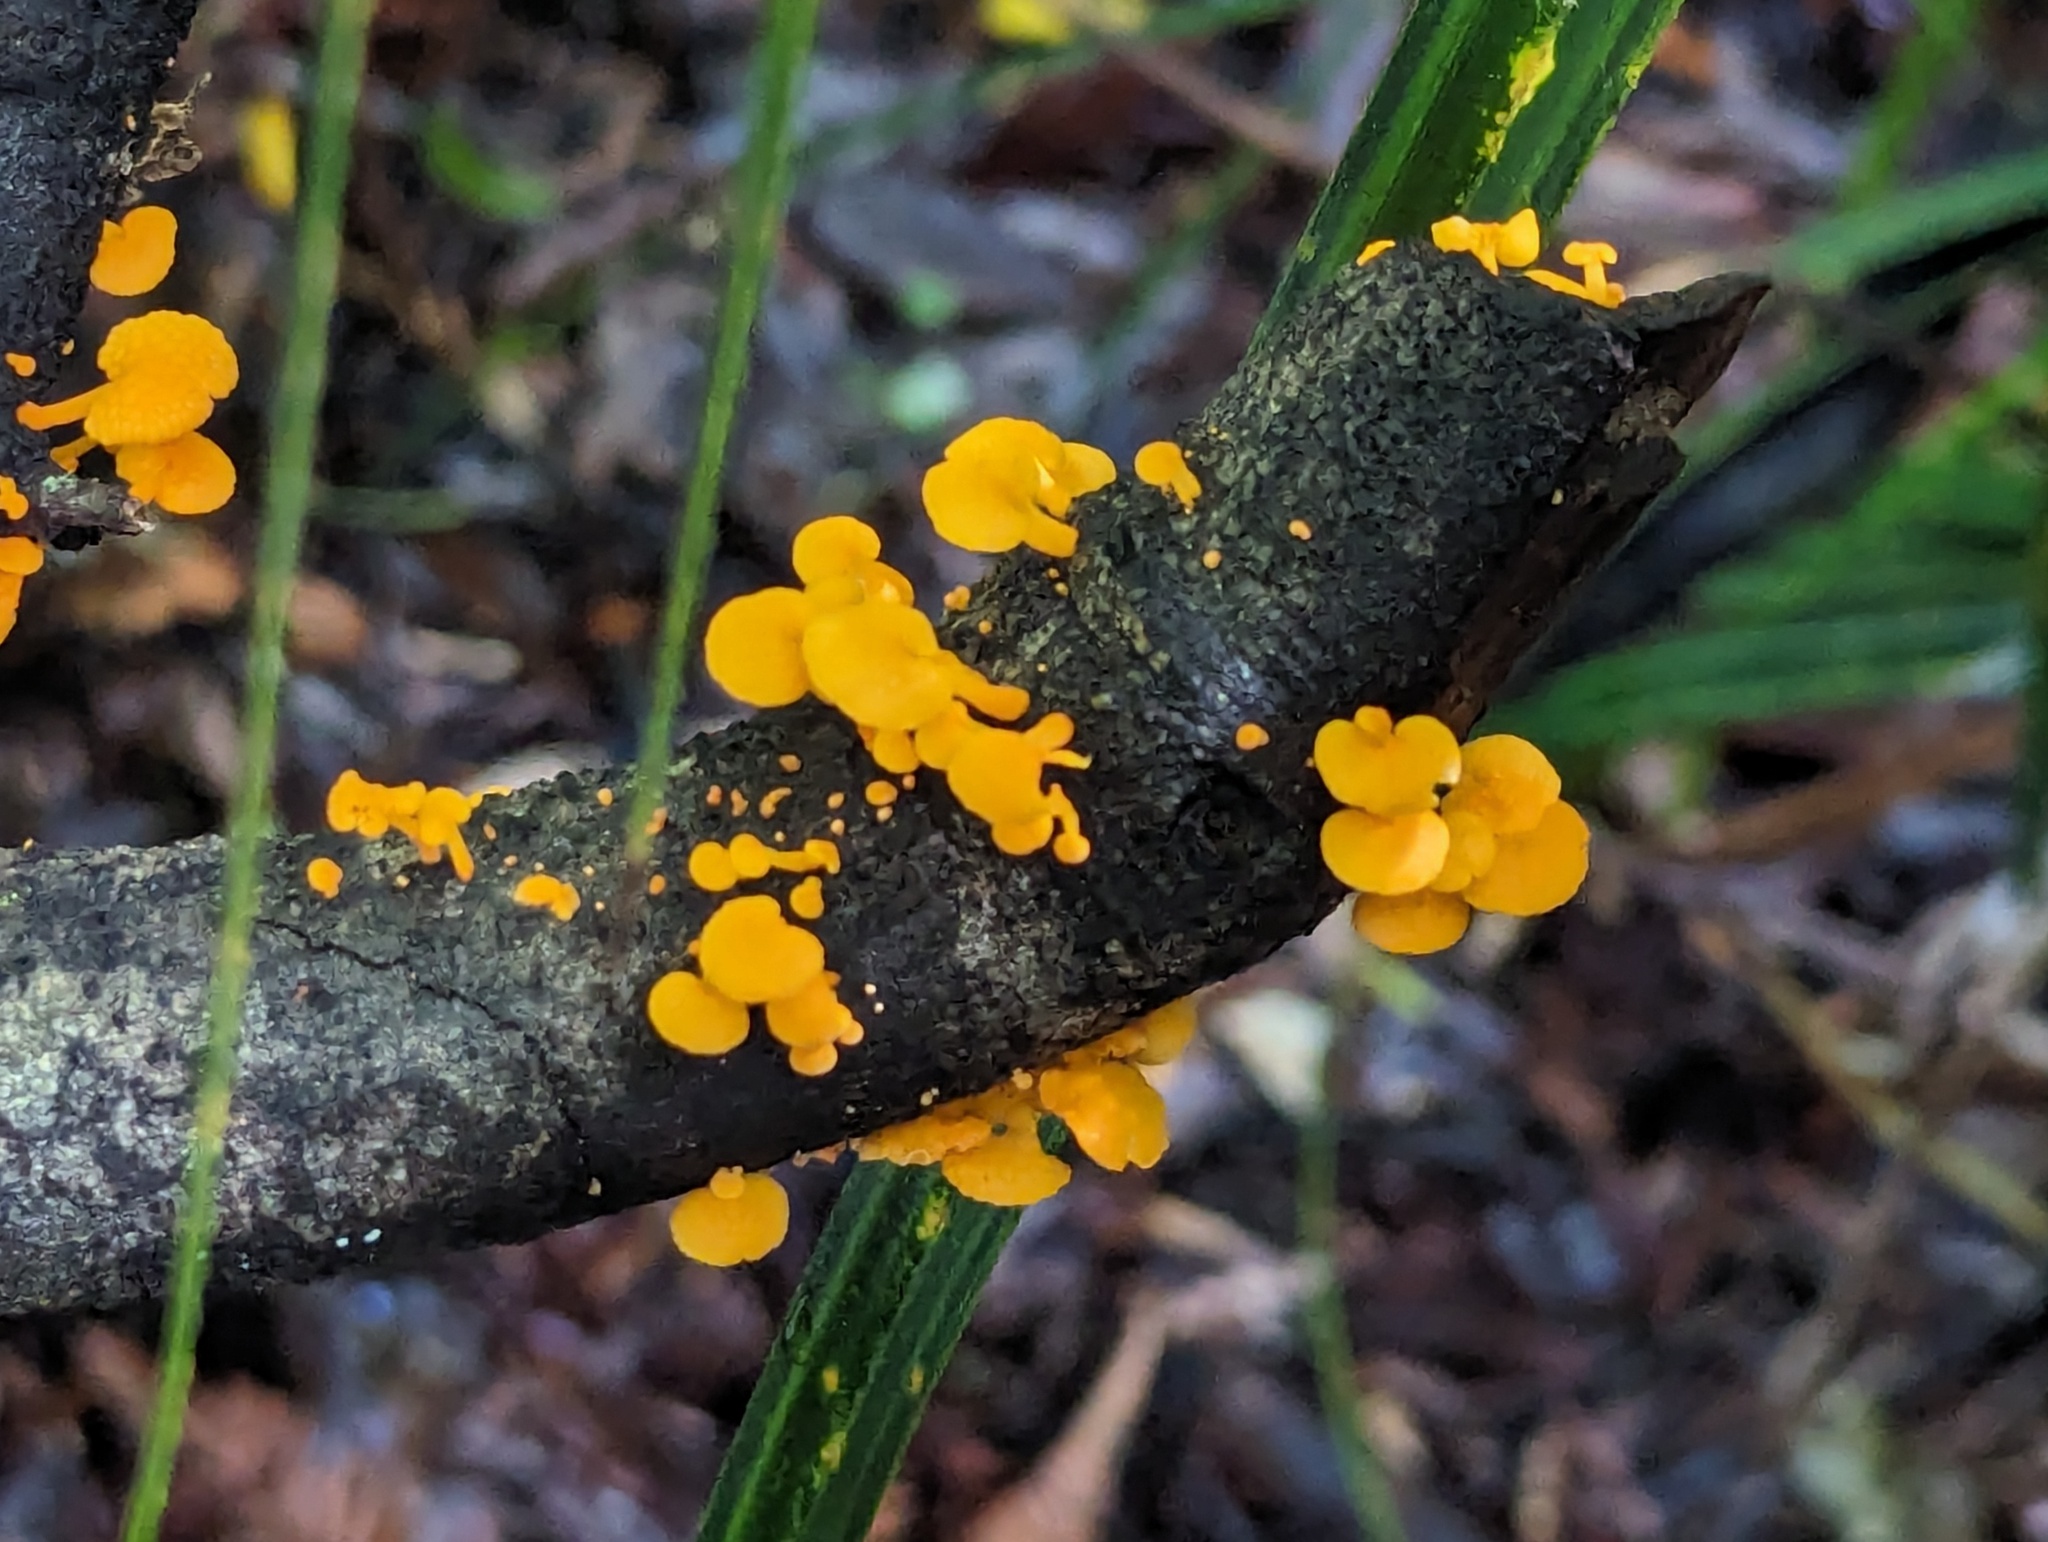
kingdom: Fungi
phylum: Basidiomycota
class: Agaricomycetes
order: Agaricales
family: Mycenaceae
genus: Favolaschia
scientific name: Favolaschia claudopus
